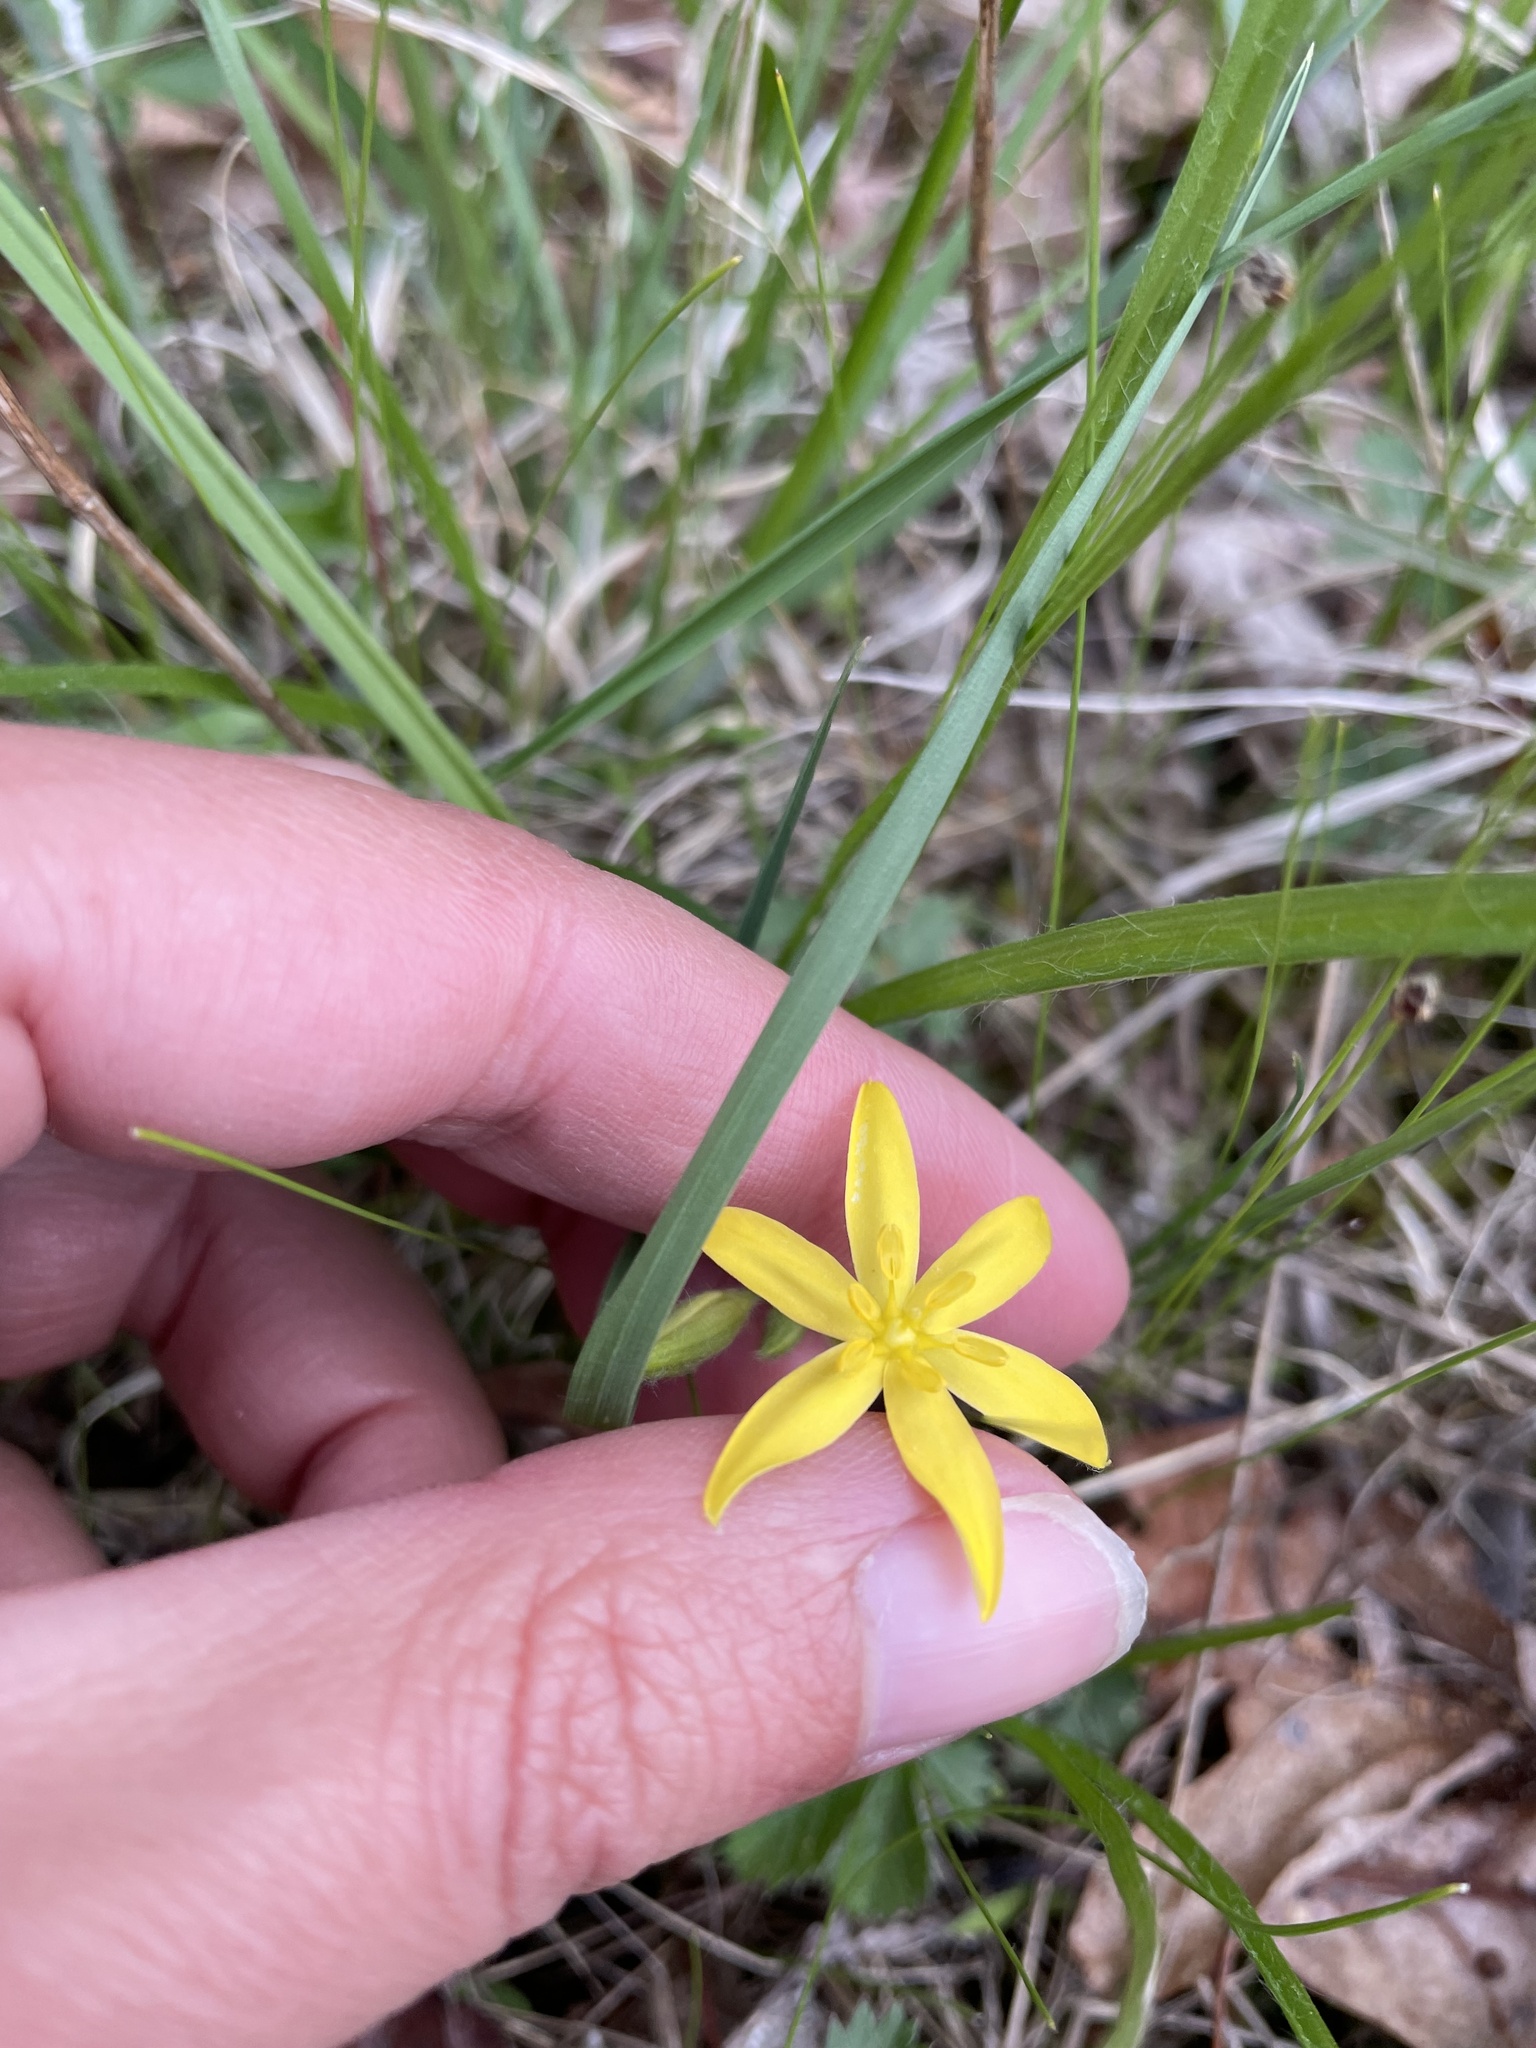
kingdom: Plantae
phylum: Tracheophyta
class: Liliopsida
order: Asparagales
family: Hypoxidaceae
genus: Hypoxis
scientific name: Hypoxis hirsuta
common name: Common goldstar
